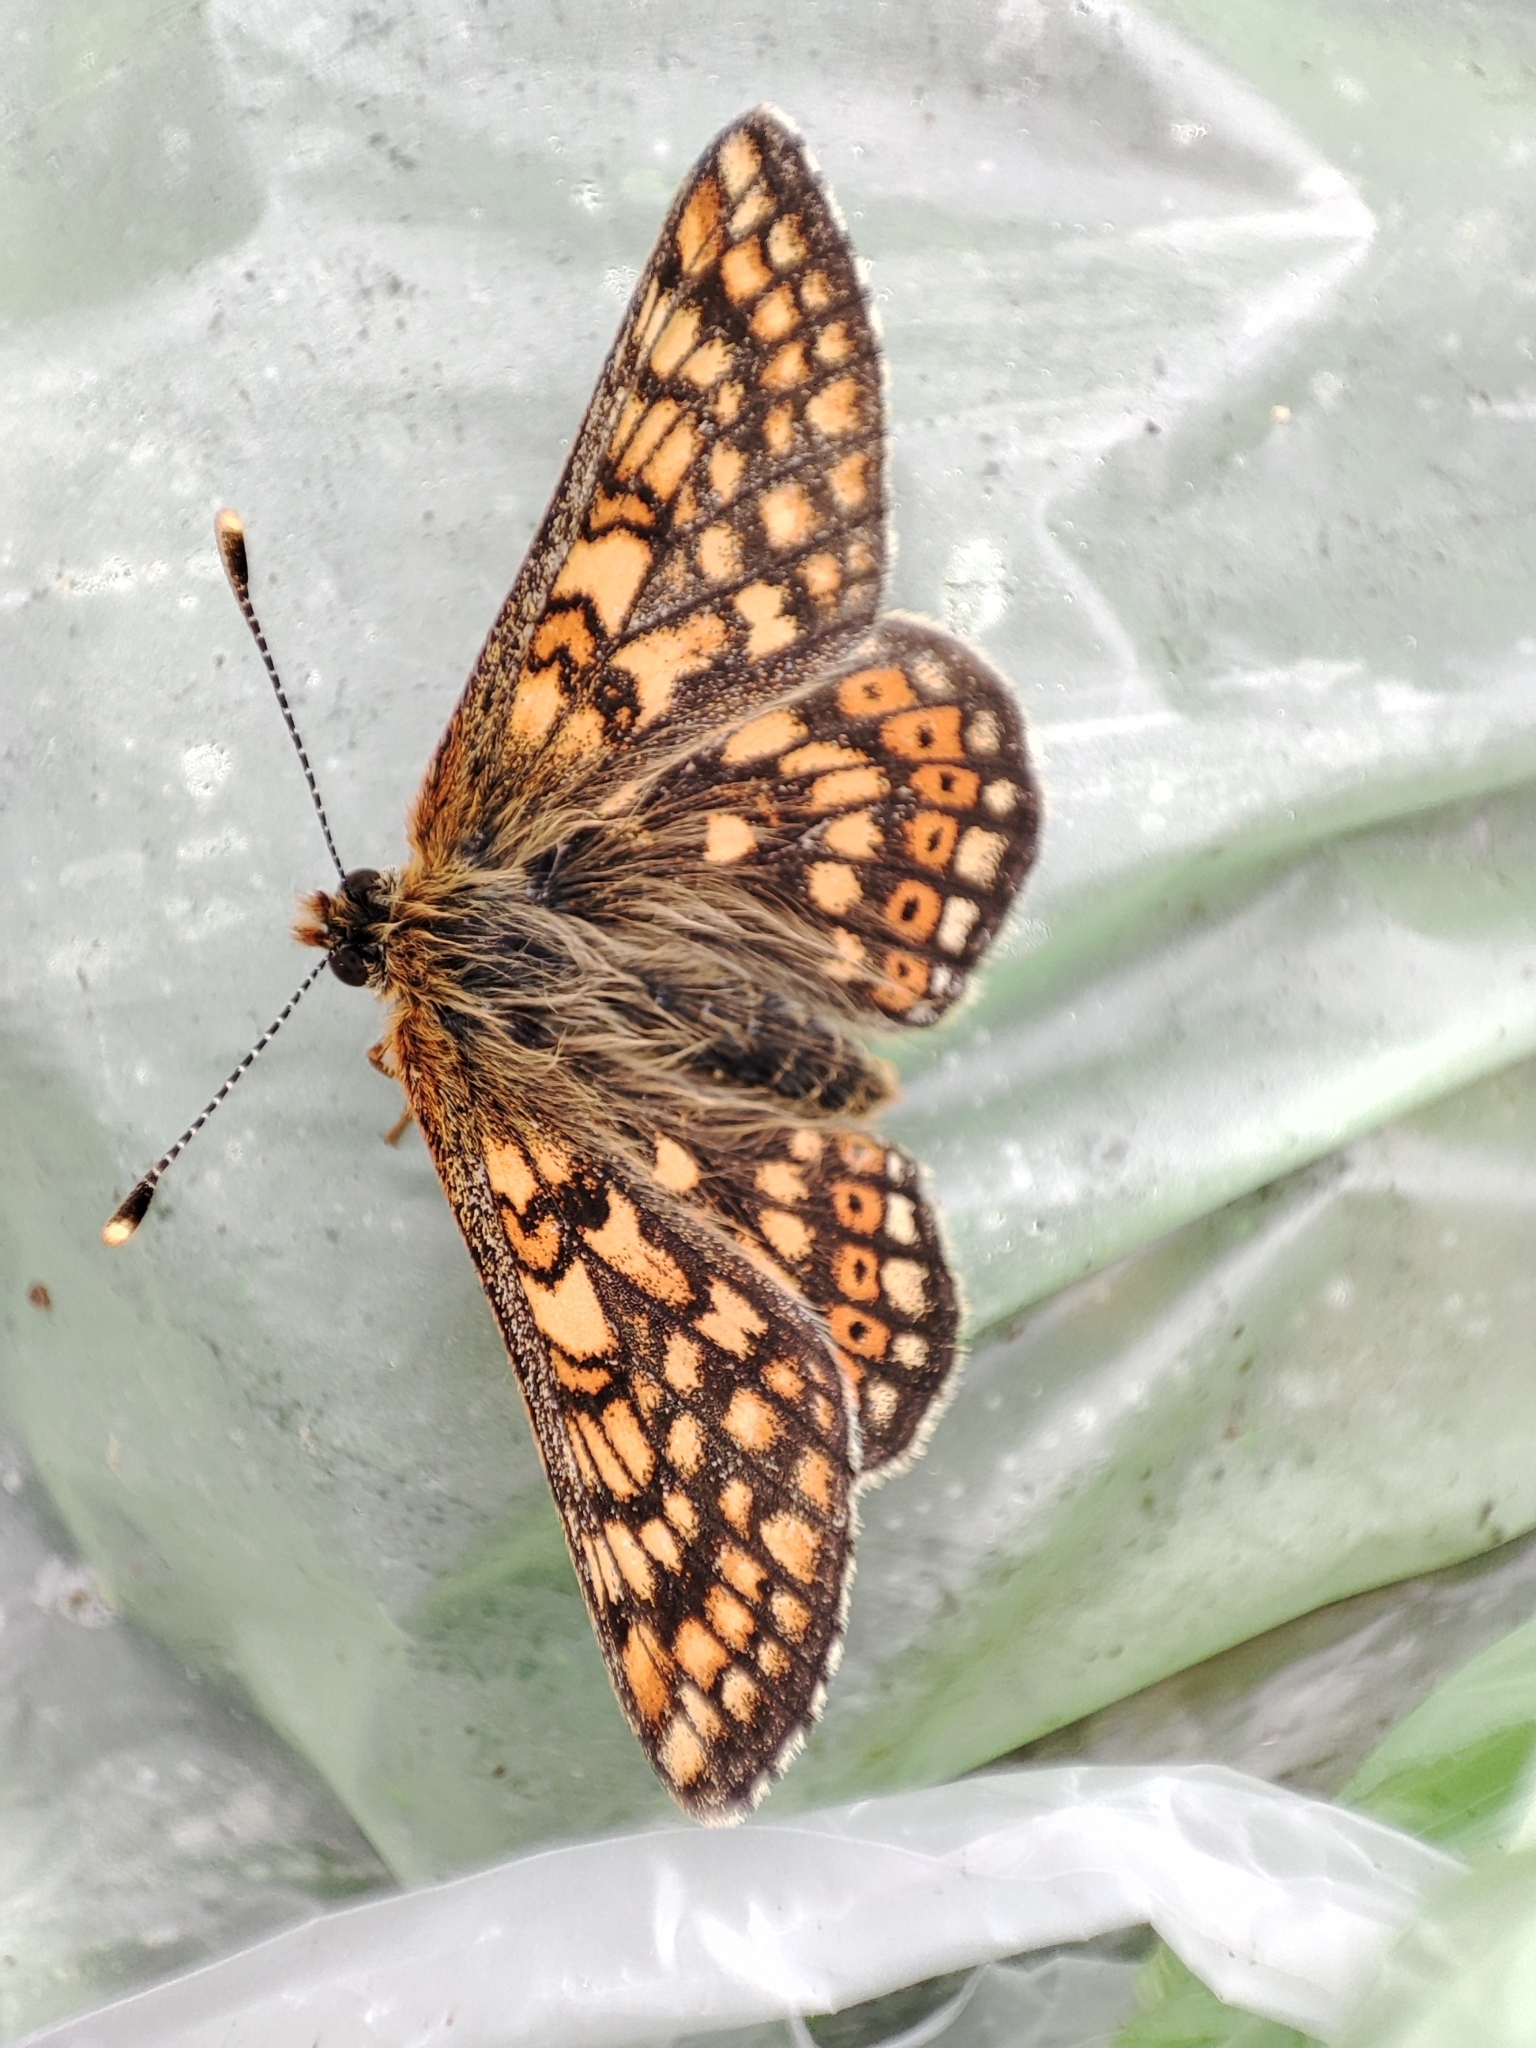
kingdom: Animalia
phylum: Arthropoda
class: Insecta
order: Lepidoptera
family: Nymphalidae
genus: Euphydryas
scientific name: Euphydryas aurinia
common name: Marsh fritillary
